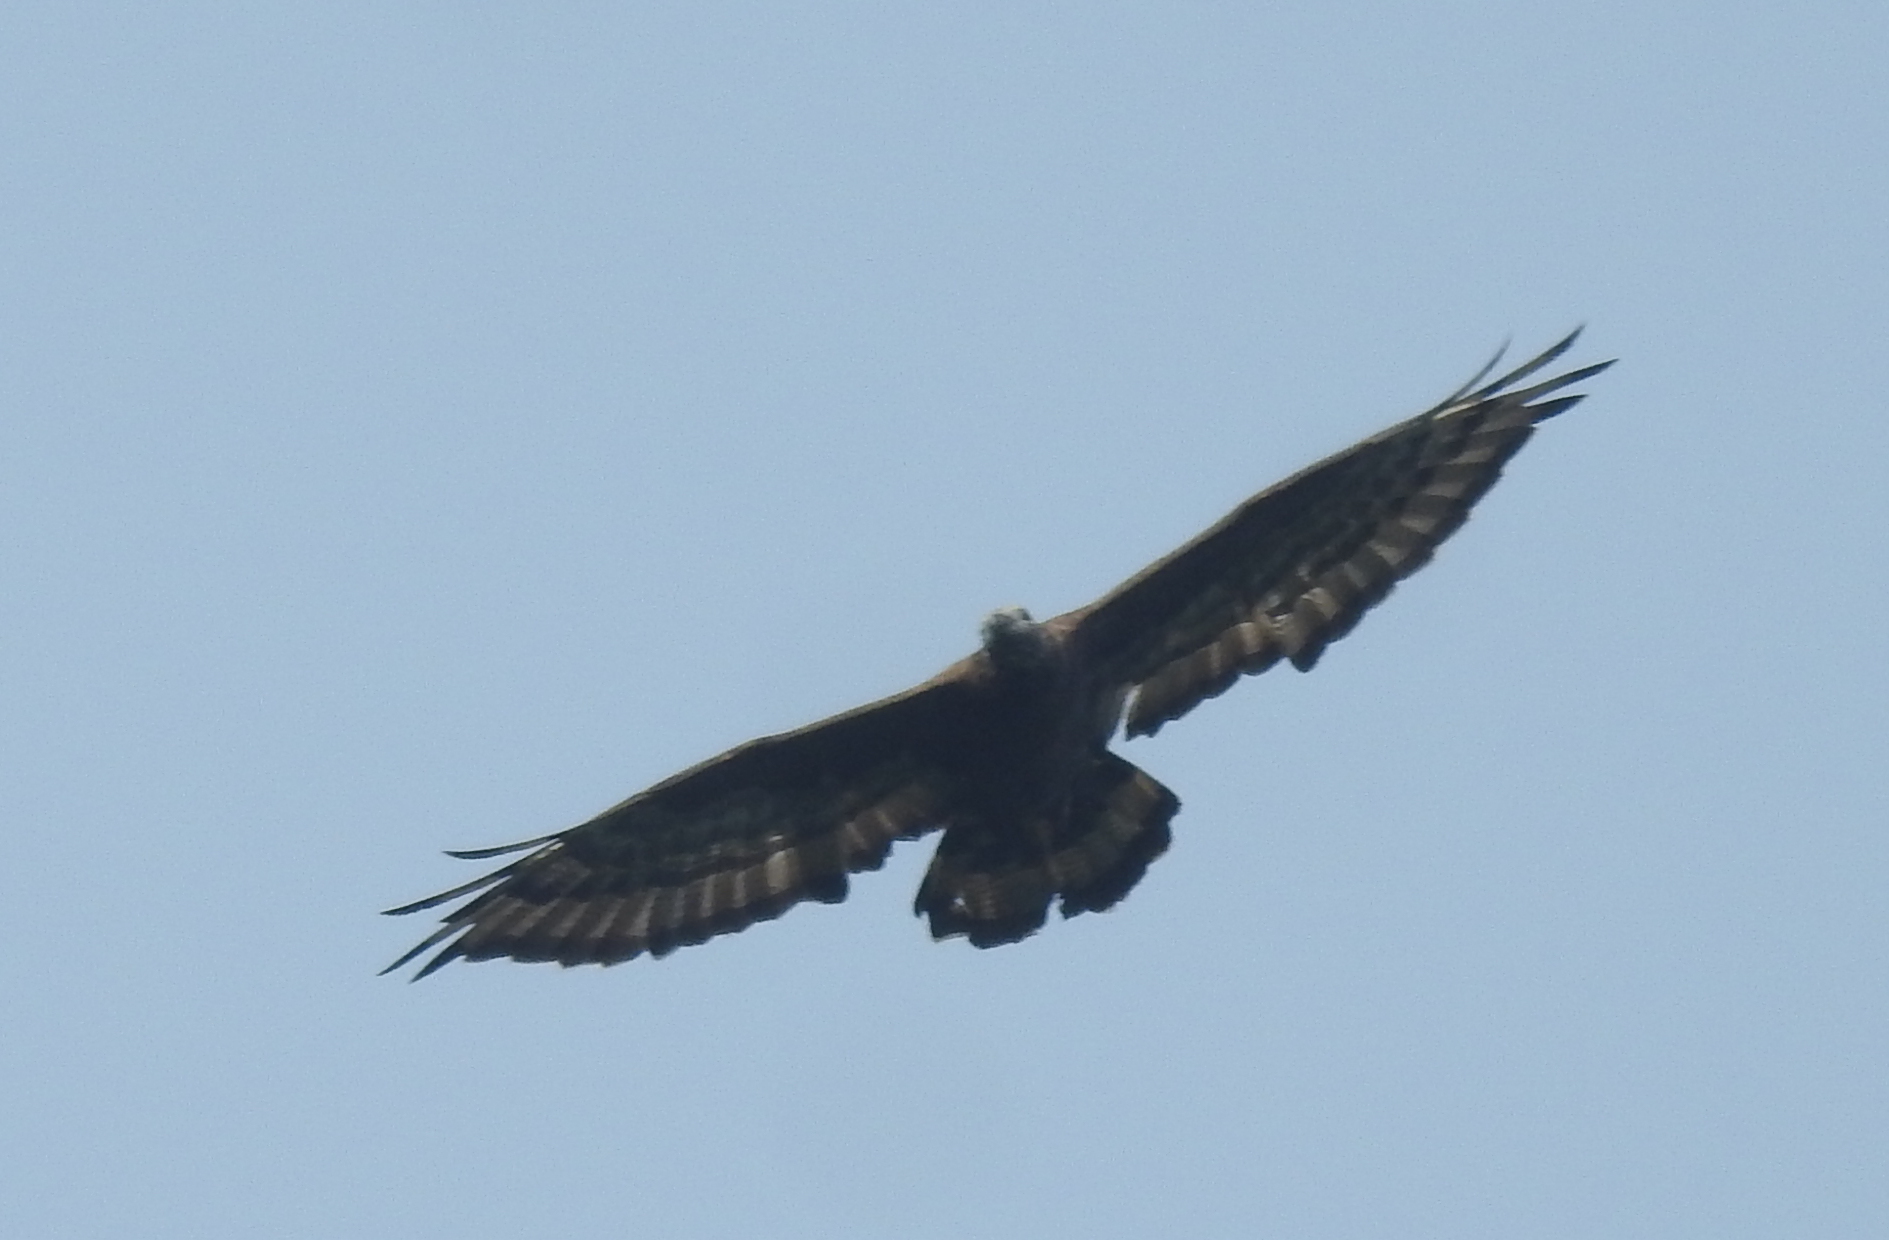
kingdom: Animalia
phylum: Chordata
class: Aves
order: Accipitriformes
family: Accipitridae
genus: Pernis
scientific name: Pernis ptilorhynchus
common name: Crested honey buzzard
